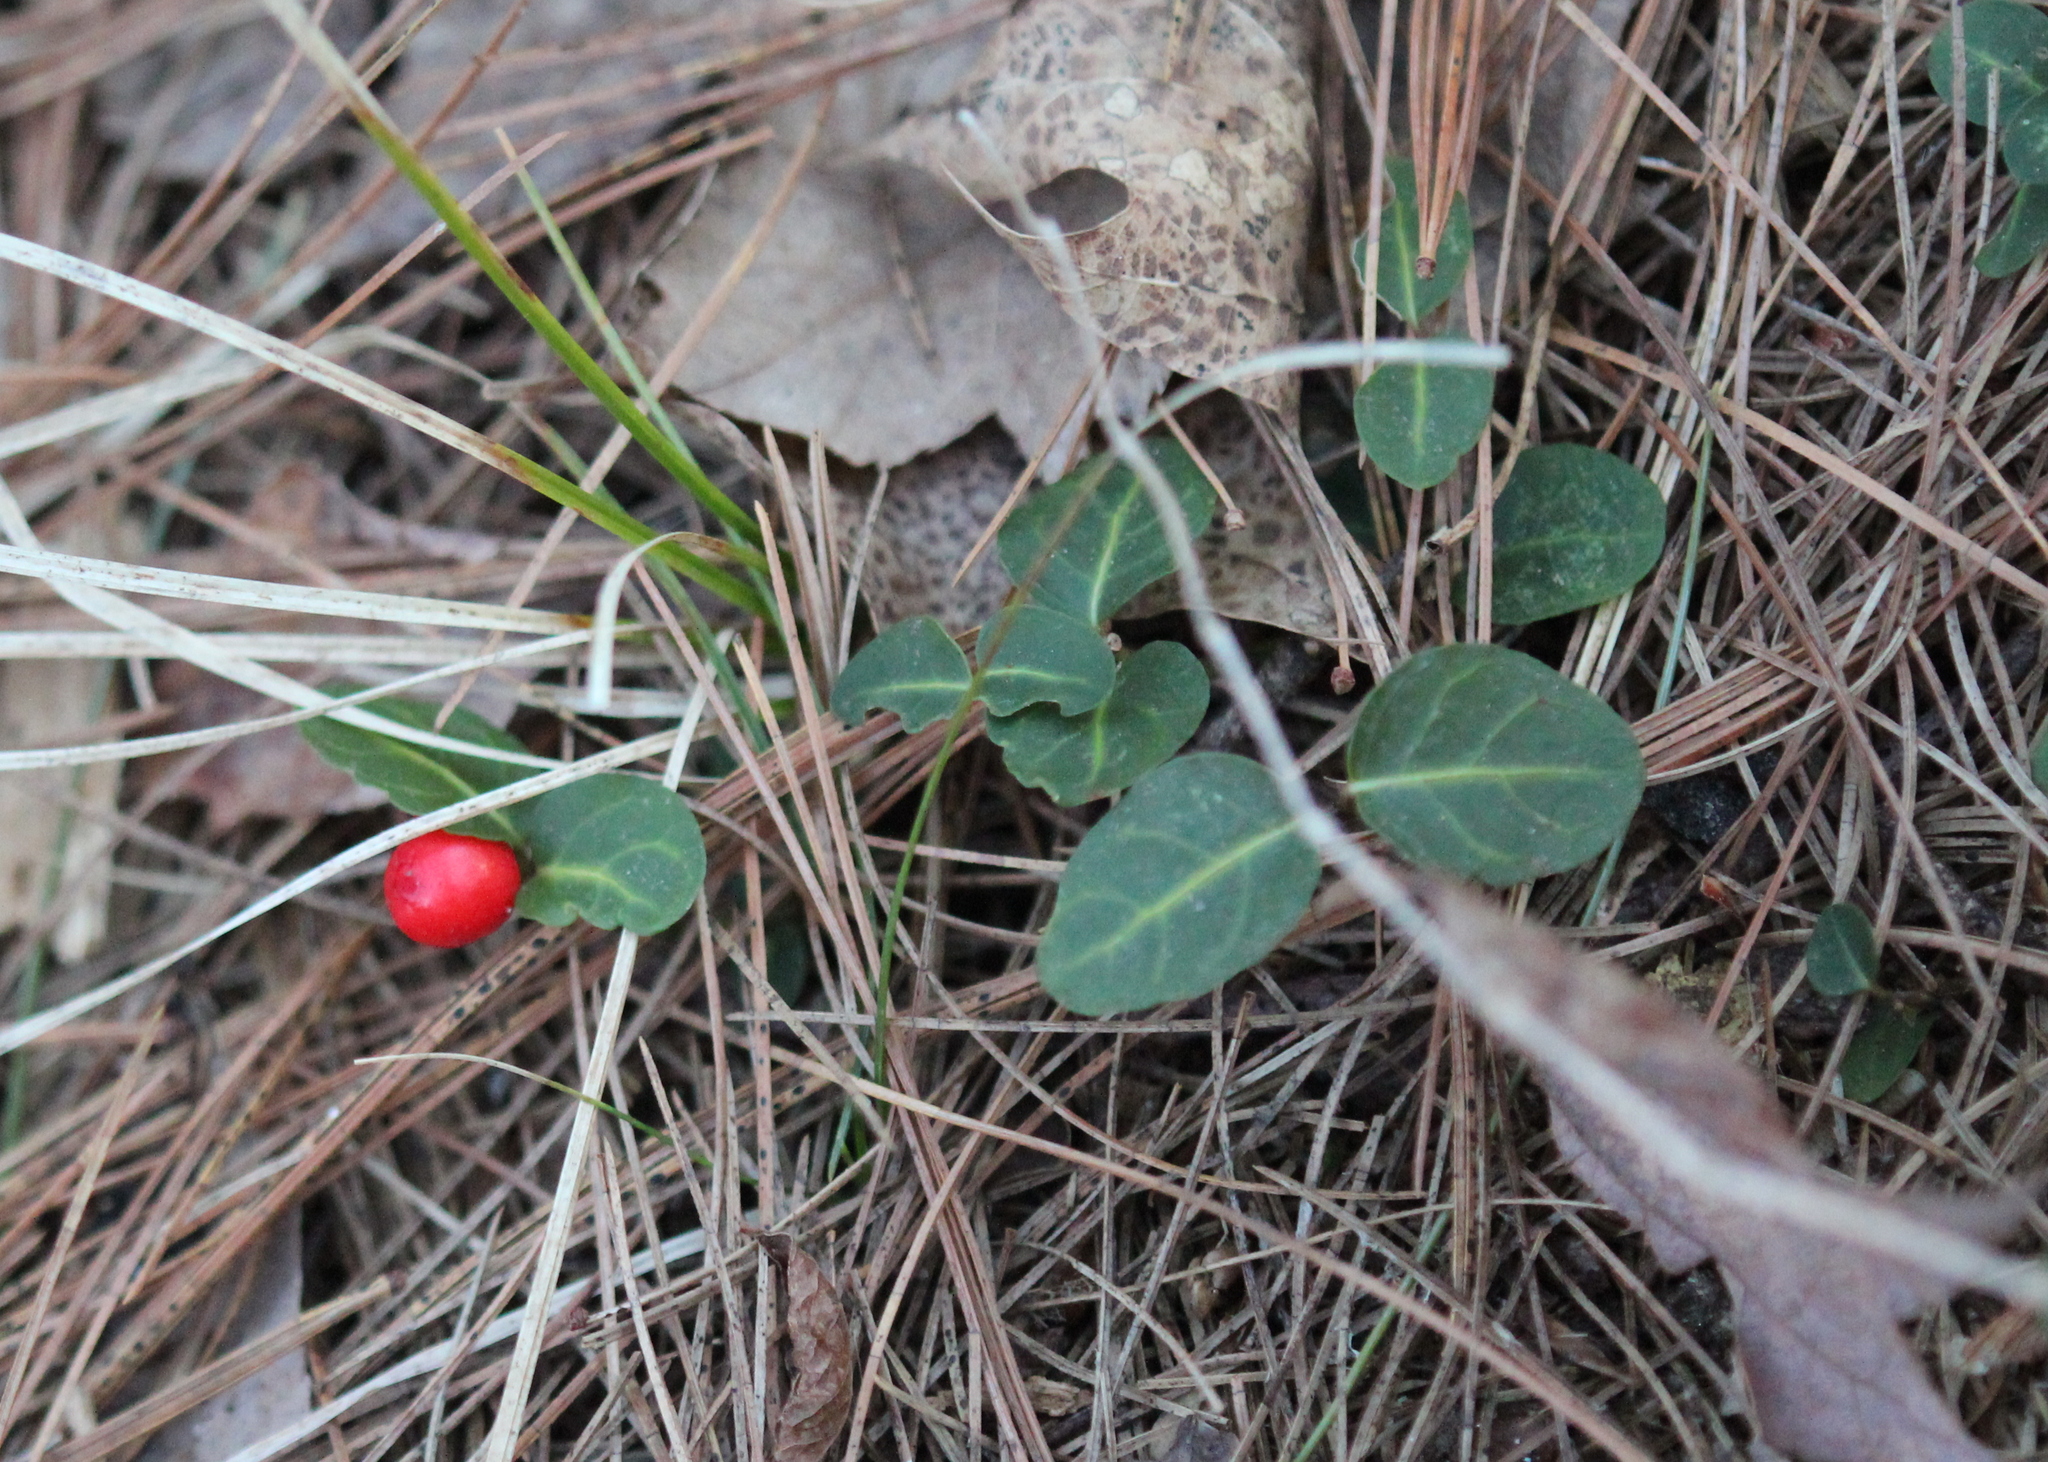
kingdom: Plantae
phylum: Tracheophyta
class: Magnoliopsida
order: Gentianales
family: Rubiaceae
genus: Mitchella
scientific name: Mitchella repens
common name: Partridge-berry
